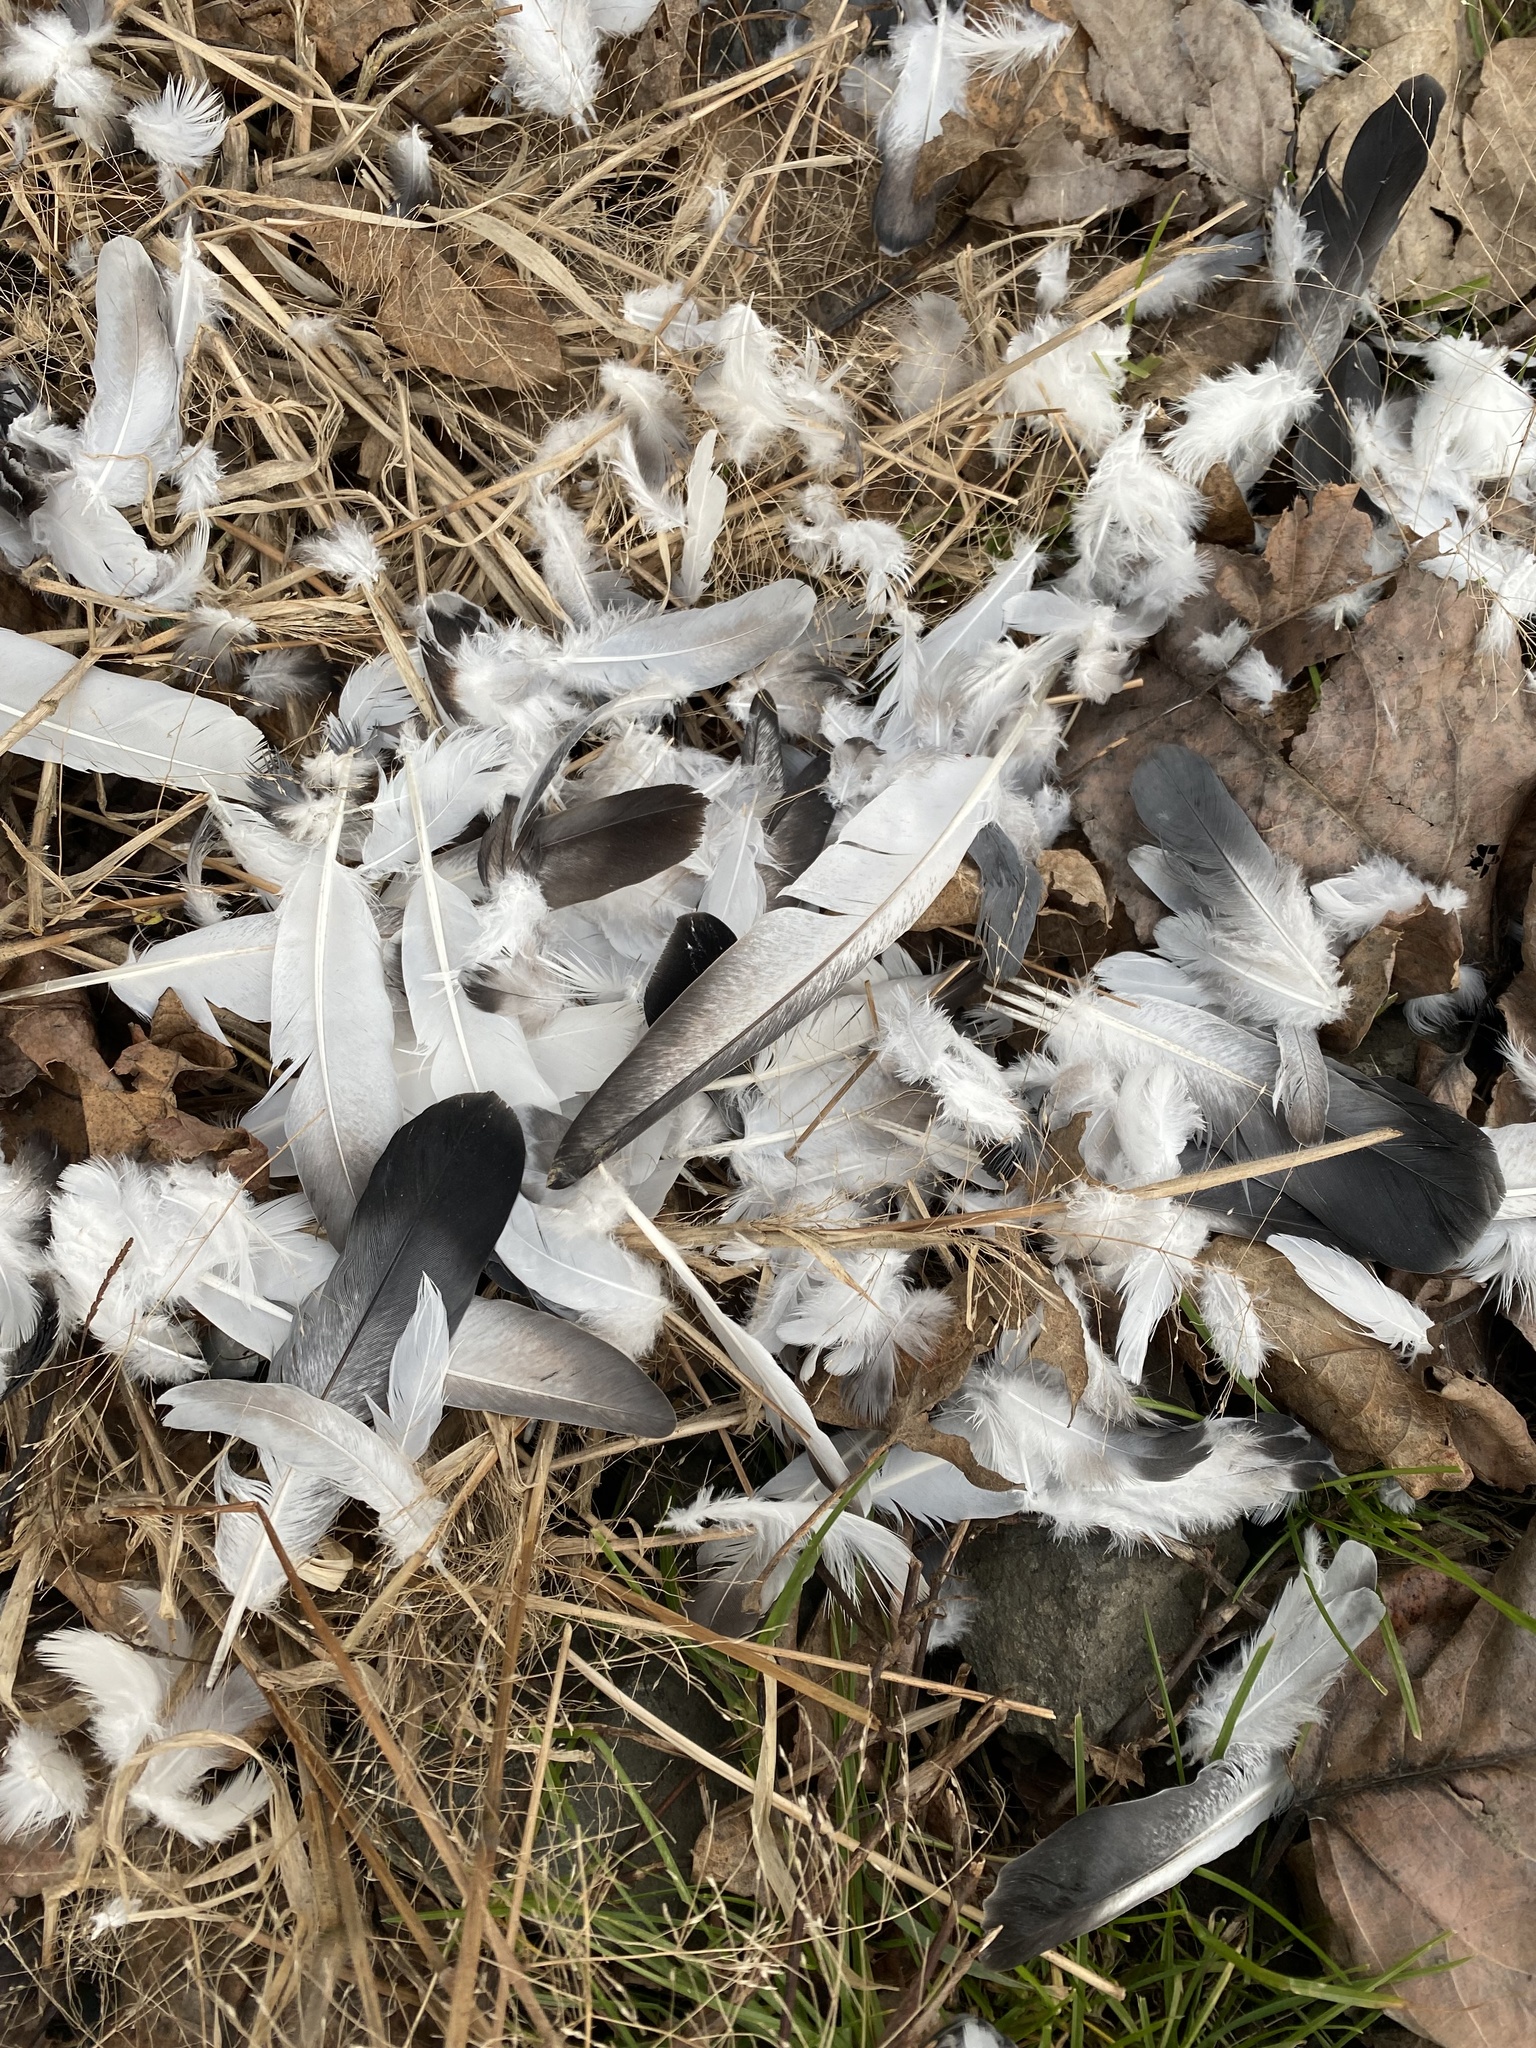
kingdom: Animalia
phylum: Chordata
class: Aves
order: Columbiformes
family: Columbidae
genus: Columba
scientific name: Columba livia
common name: Rock pigeon
